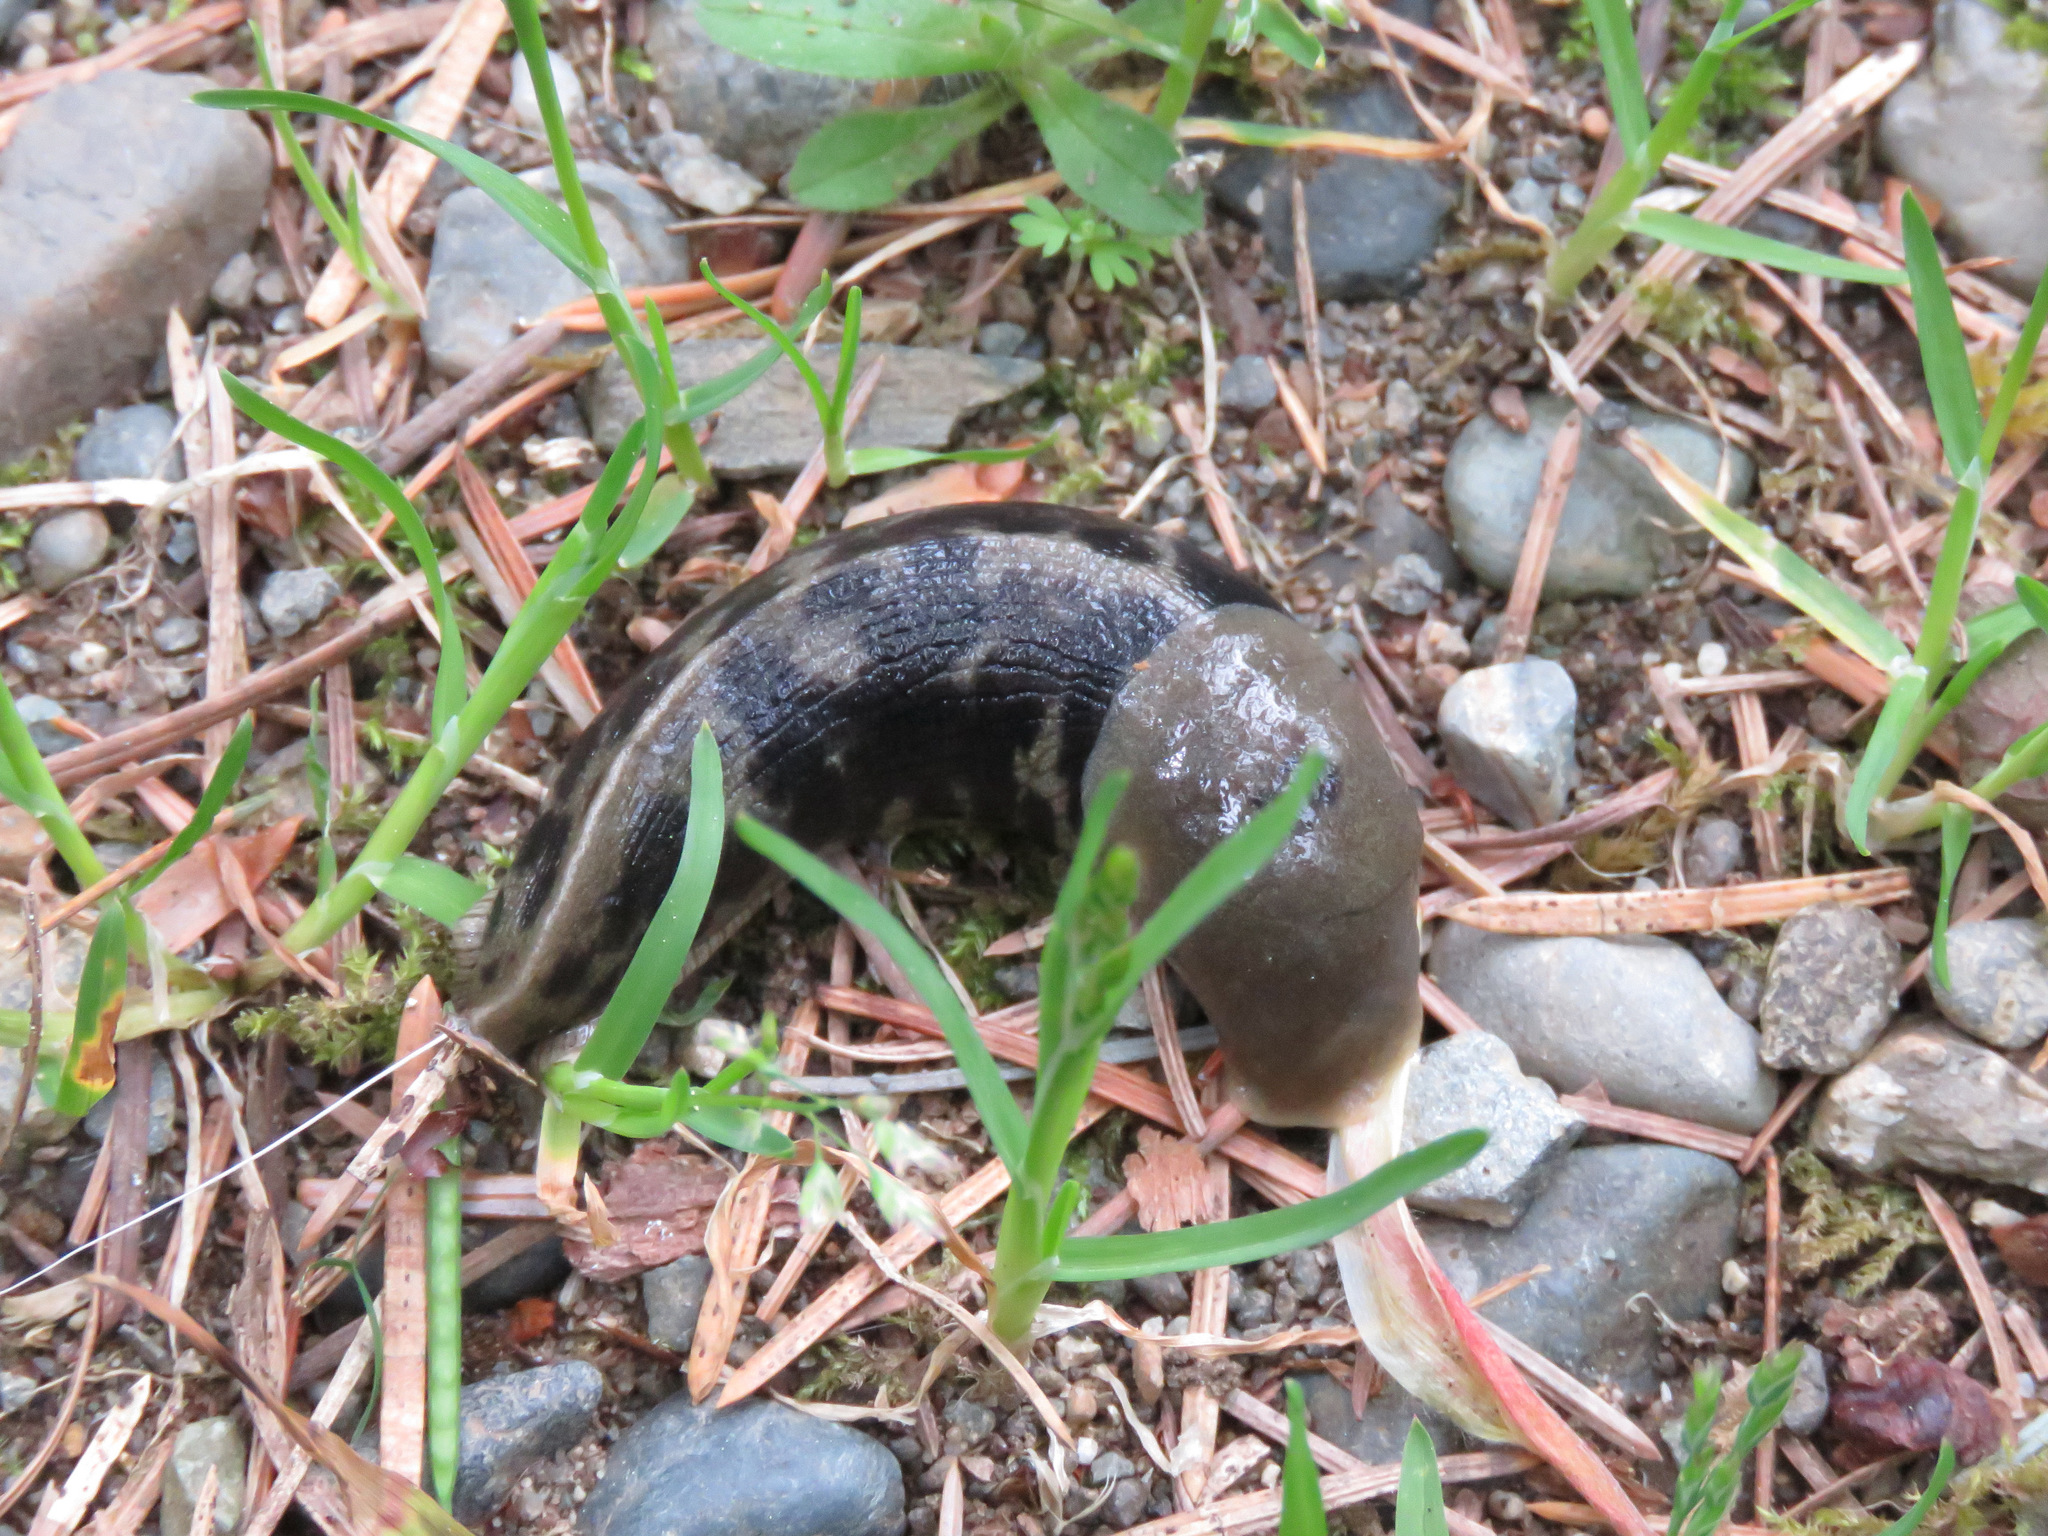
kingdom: Animalia
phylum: Mollusca
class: Gastropoda
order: Stylommatophora
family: Ariolimacidae
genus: Ariolimax
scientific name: Ariolimax columbianus
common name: Pacific banana slug
